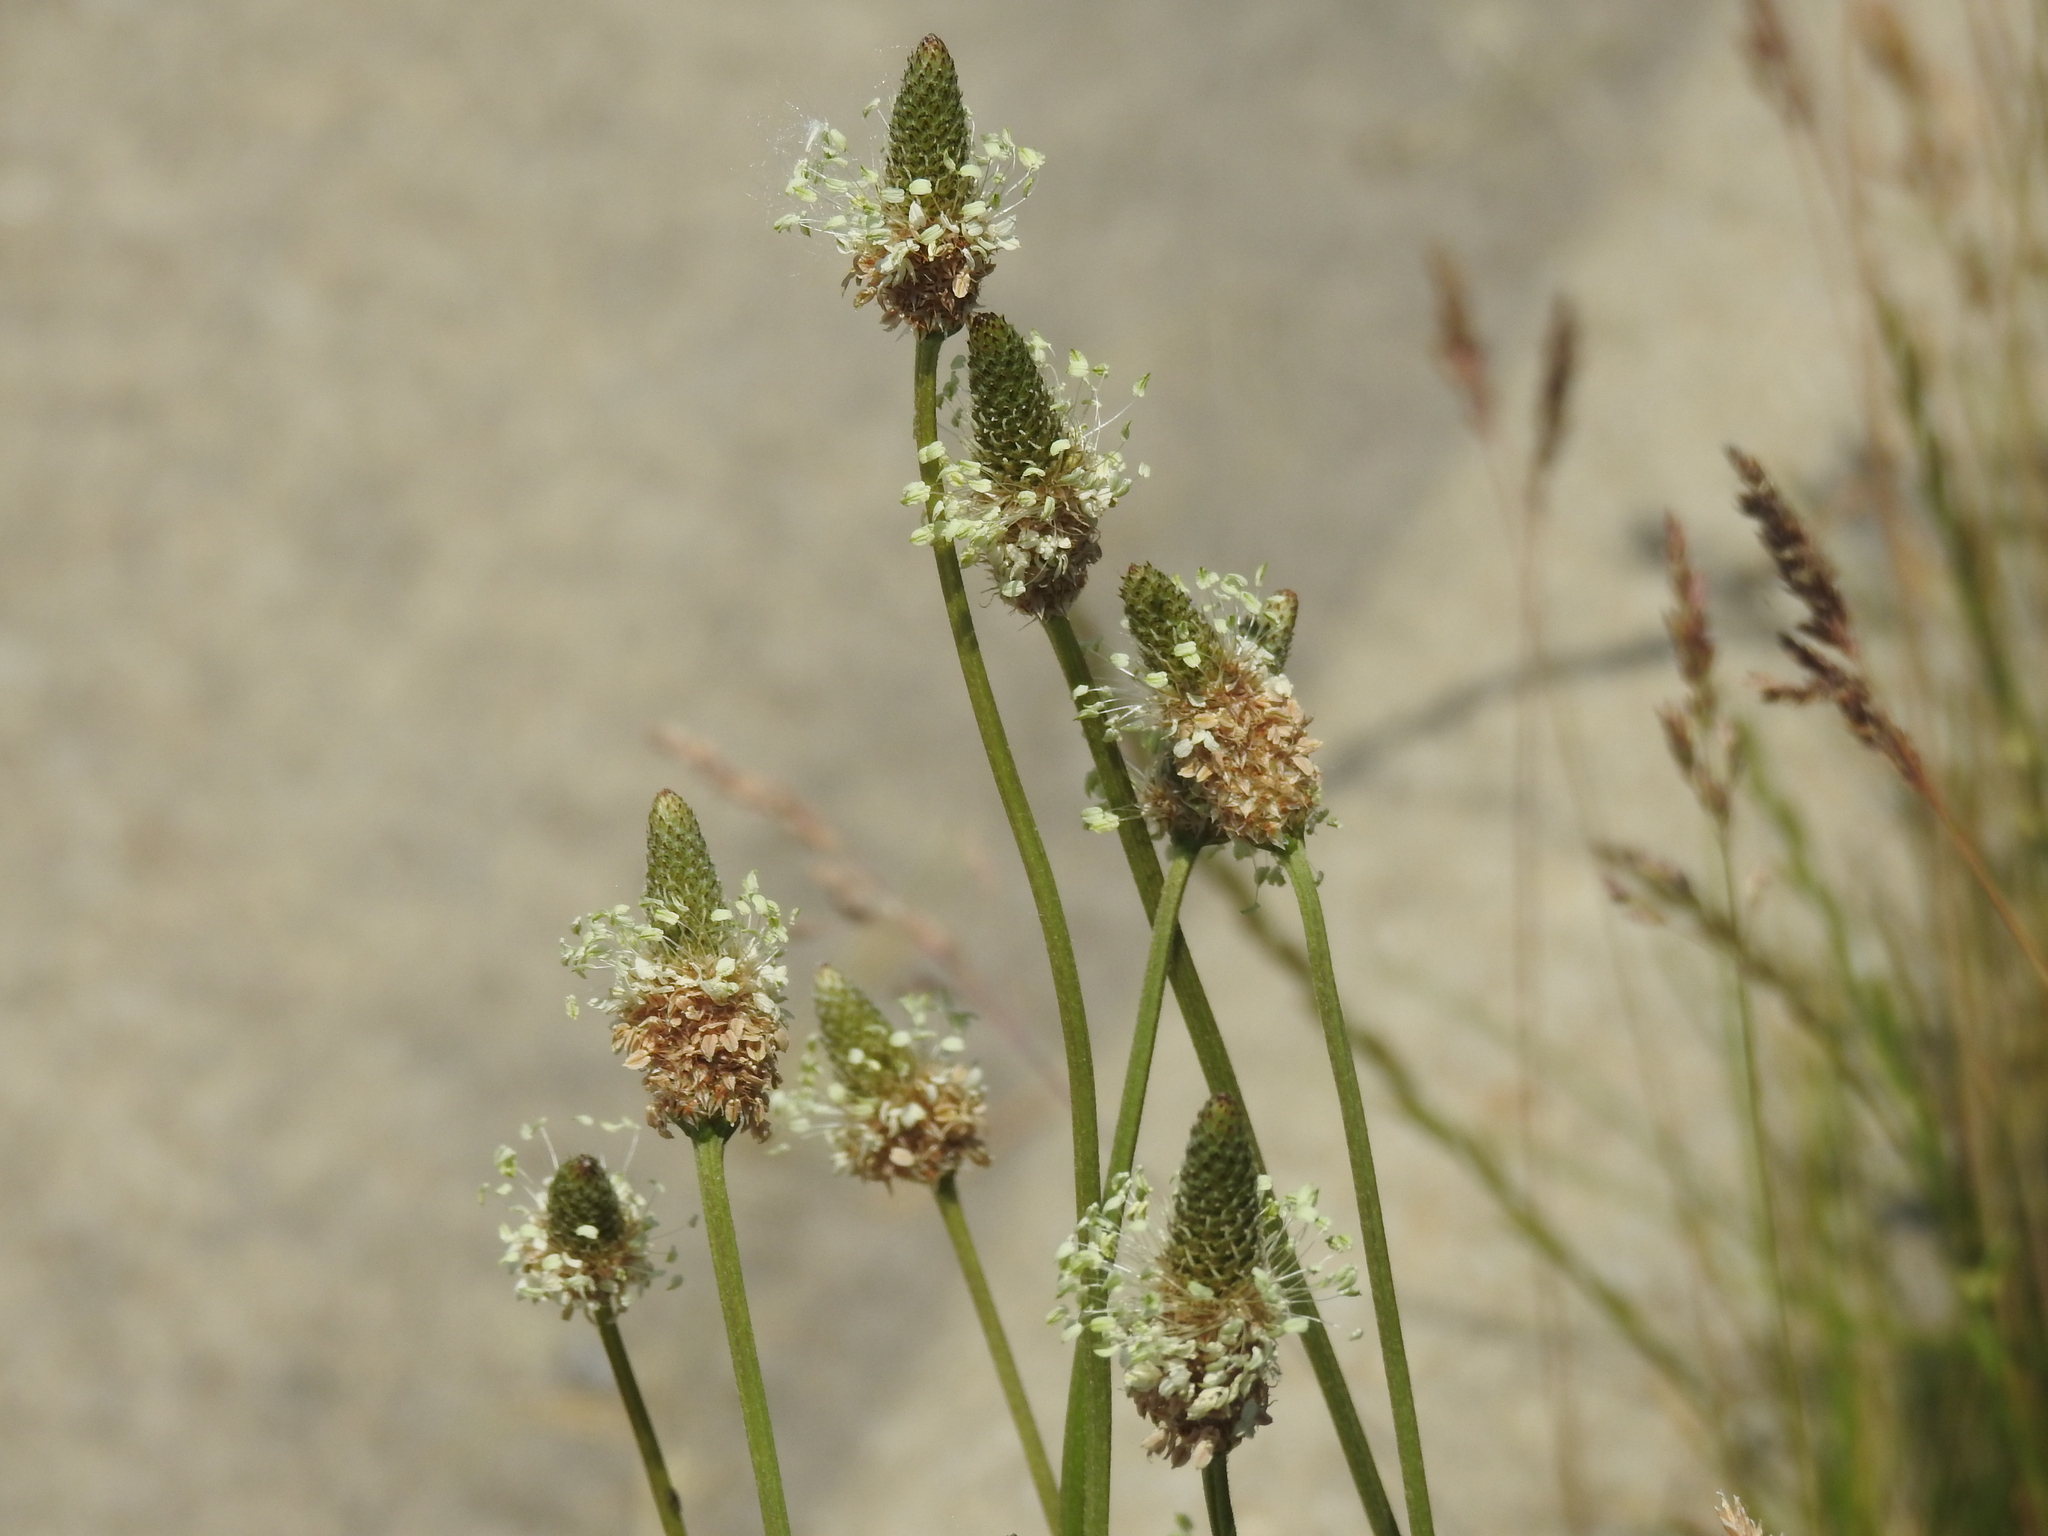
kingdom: Plantae
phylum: Tracheophyta
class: Magnoliopsida
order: Lamiales
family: Plantaginaceae
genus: Plantago
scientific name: Plantago lanceolata
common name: Ribwort plantain
